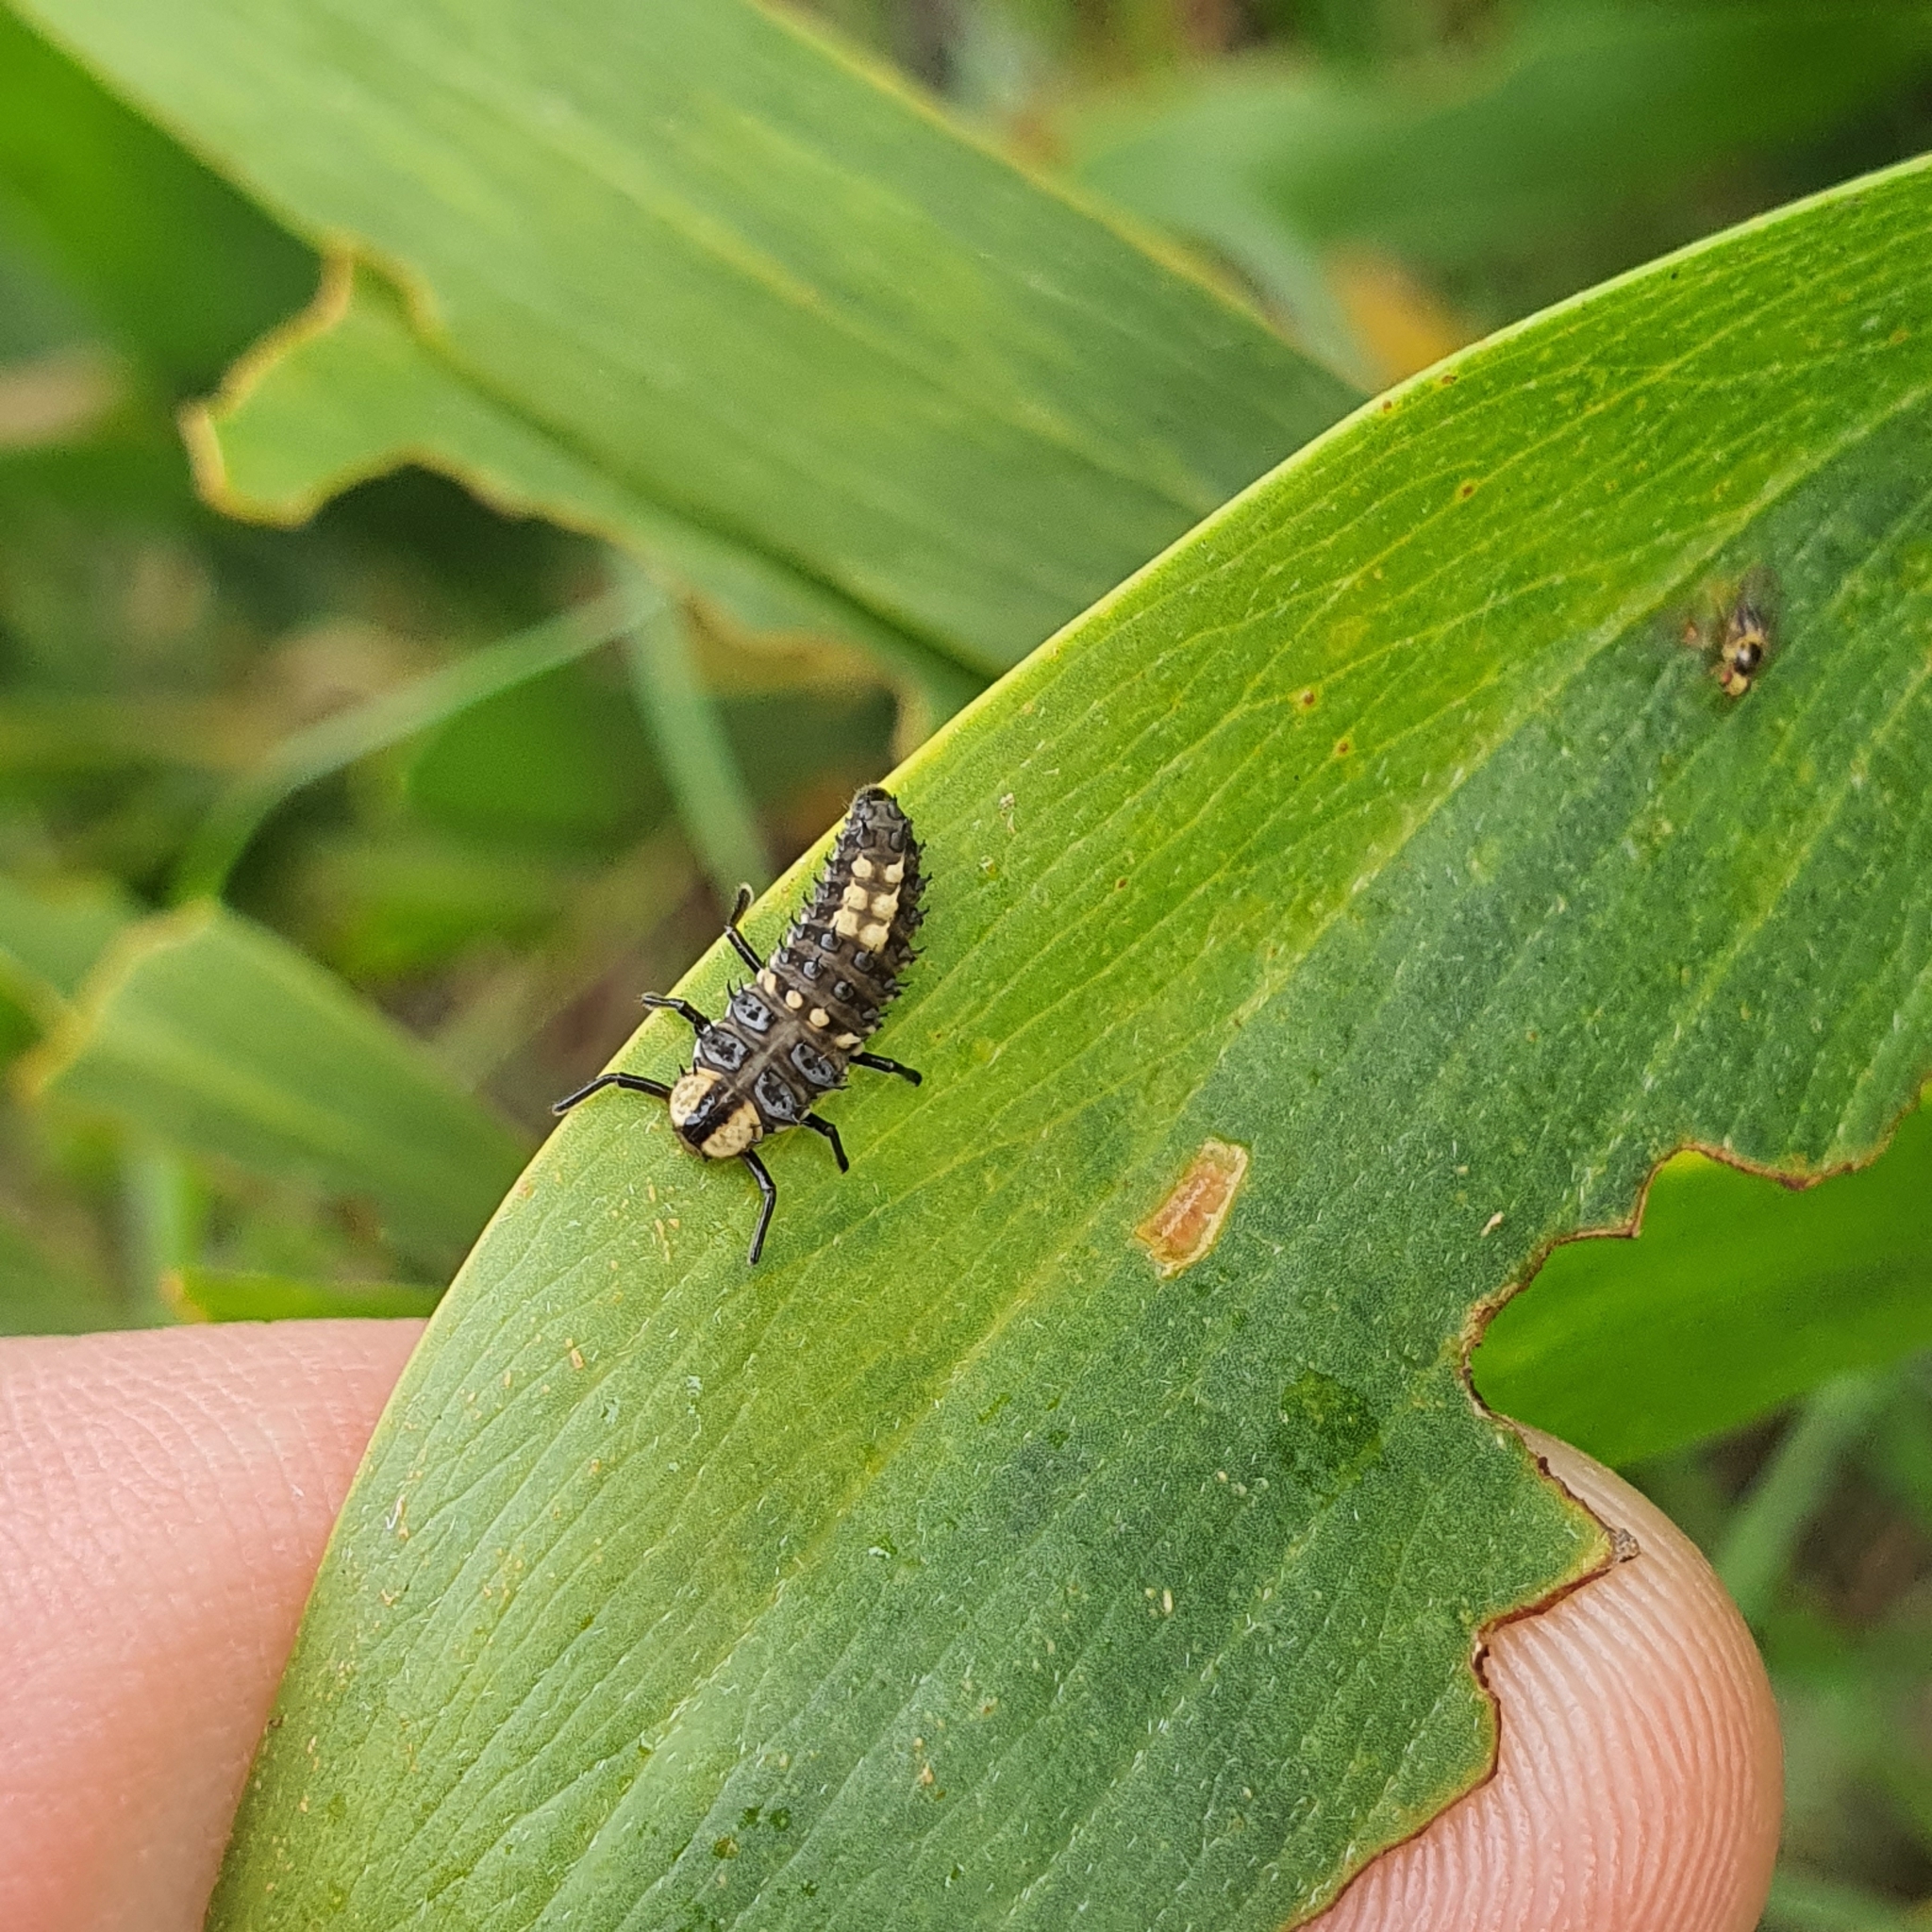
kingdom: Animalia
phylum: Arthropoda
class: Insecta
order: Coleoptera
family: Coccinellidae
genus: Harmonia
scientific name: Harmonia
